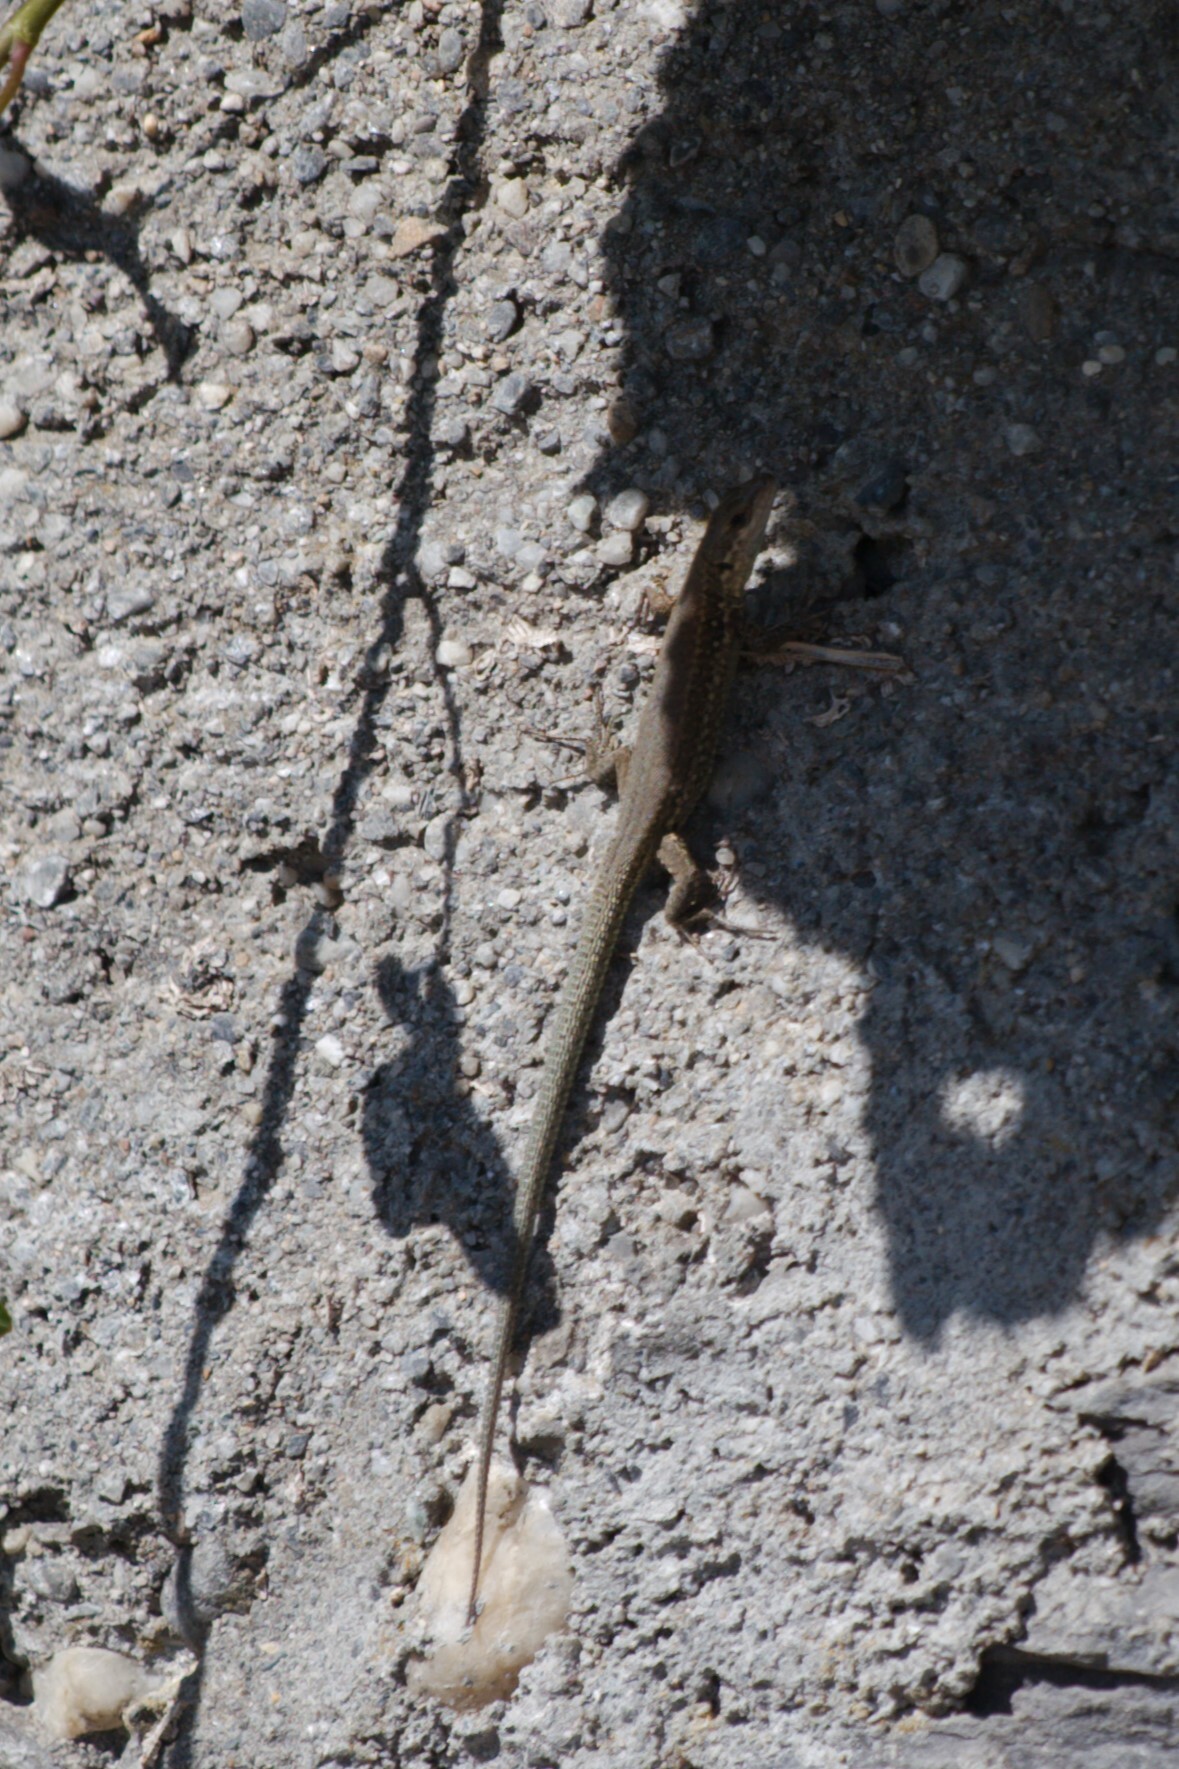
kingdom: Animalia
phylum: Chordata
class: Squamata
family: Lacertidae
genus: Podarcis
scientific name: Podarcis muralis
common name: Common wall lizard
